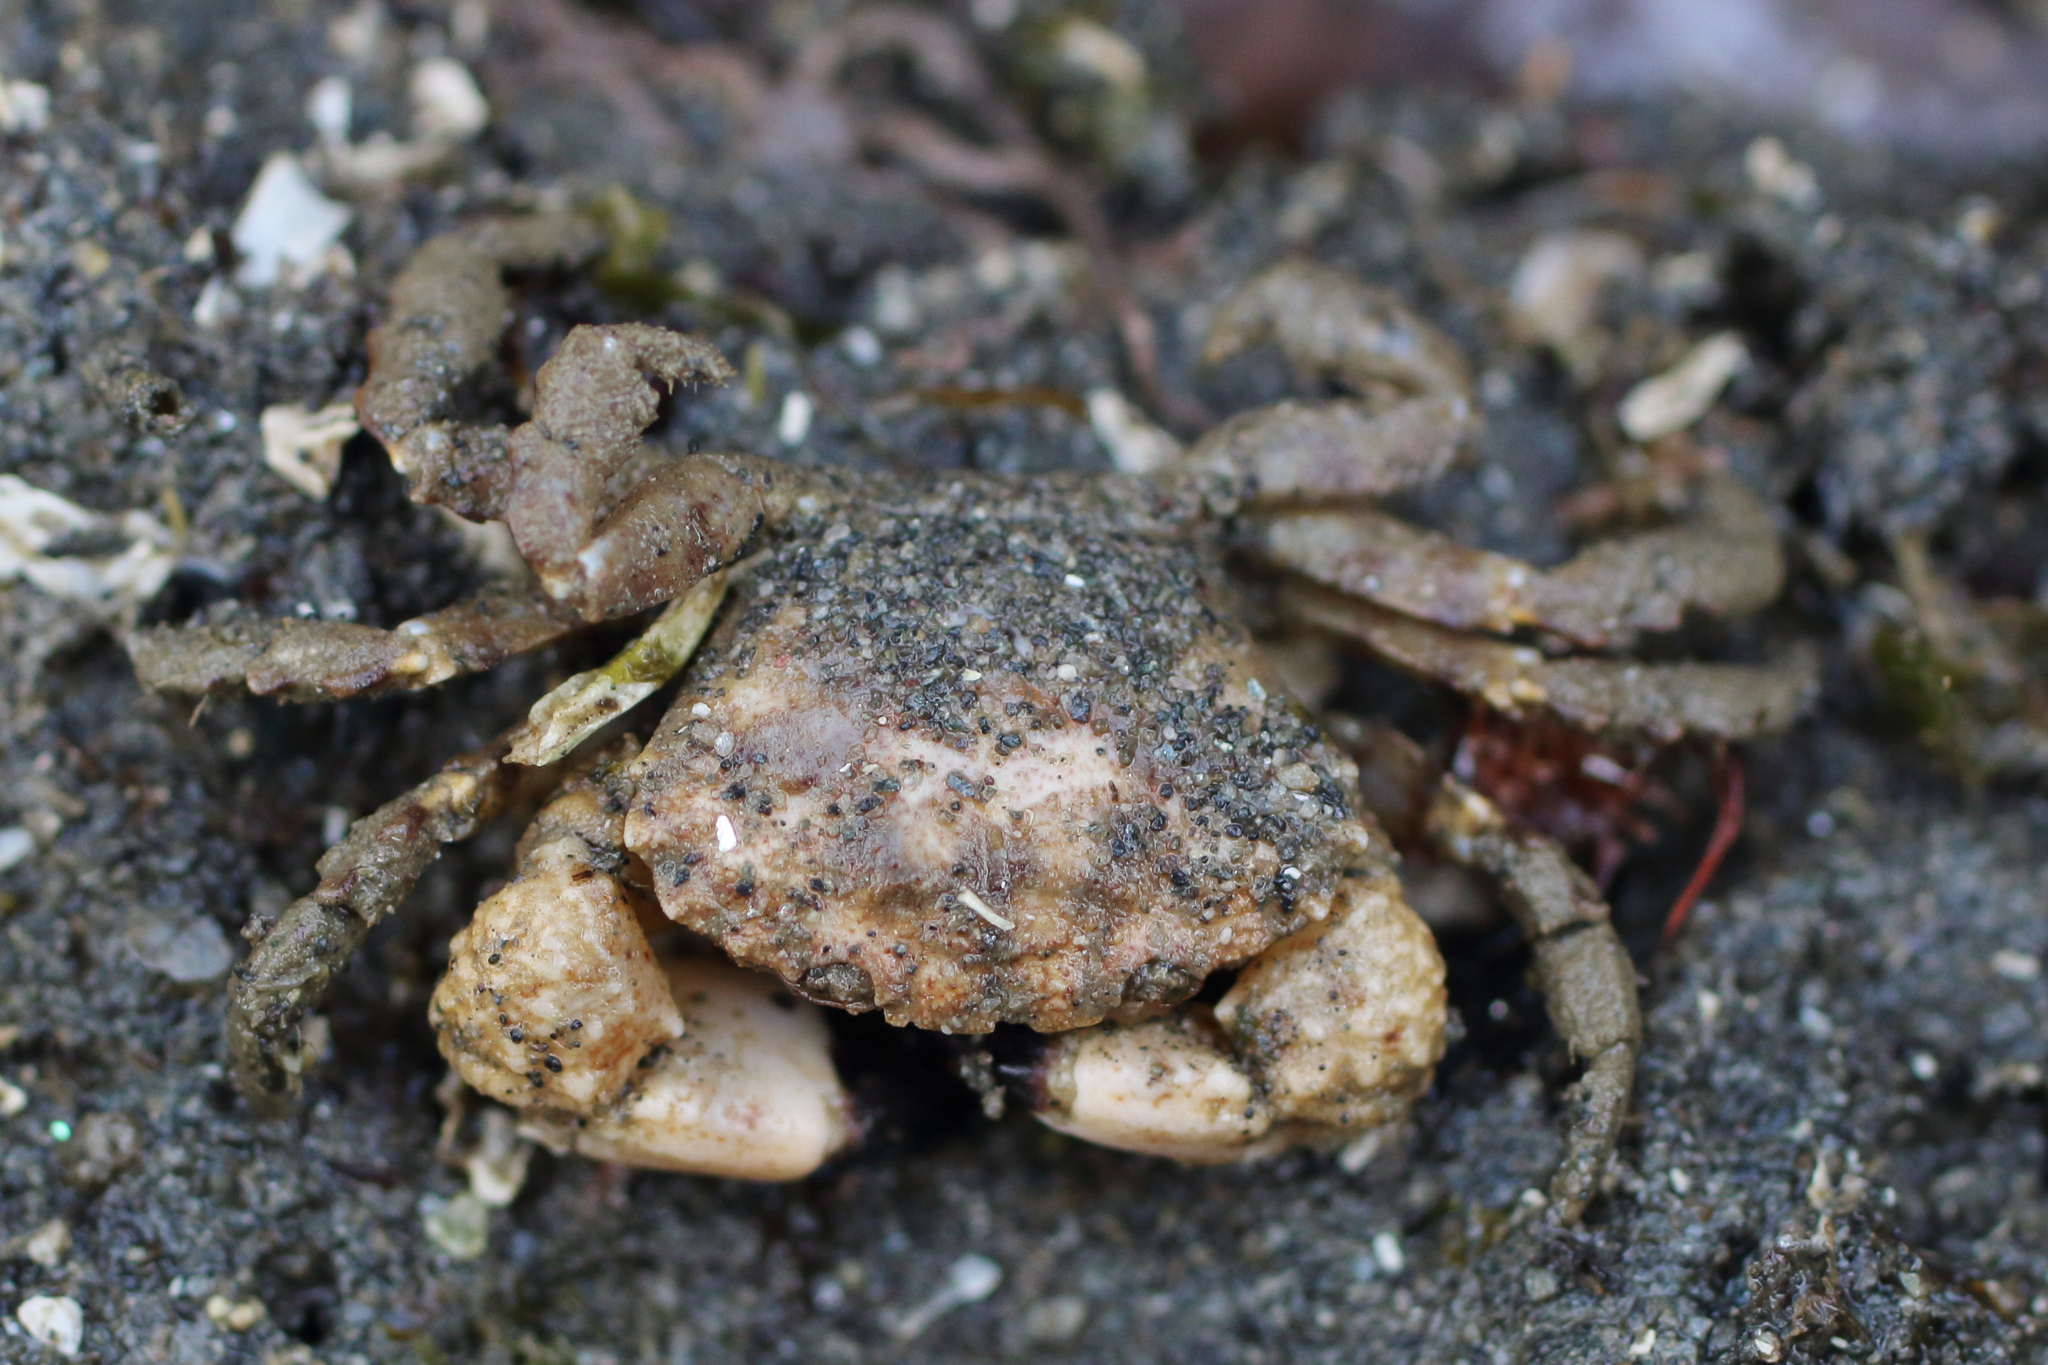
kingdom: Animalia
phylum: Arthropoda
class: Malacostraca
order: Decapoda
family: Panopeidae
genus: Lophopanopeus
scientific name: Lophopanopeus bellus
